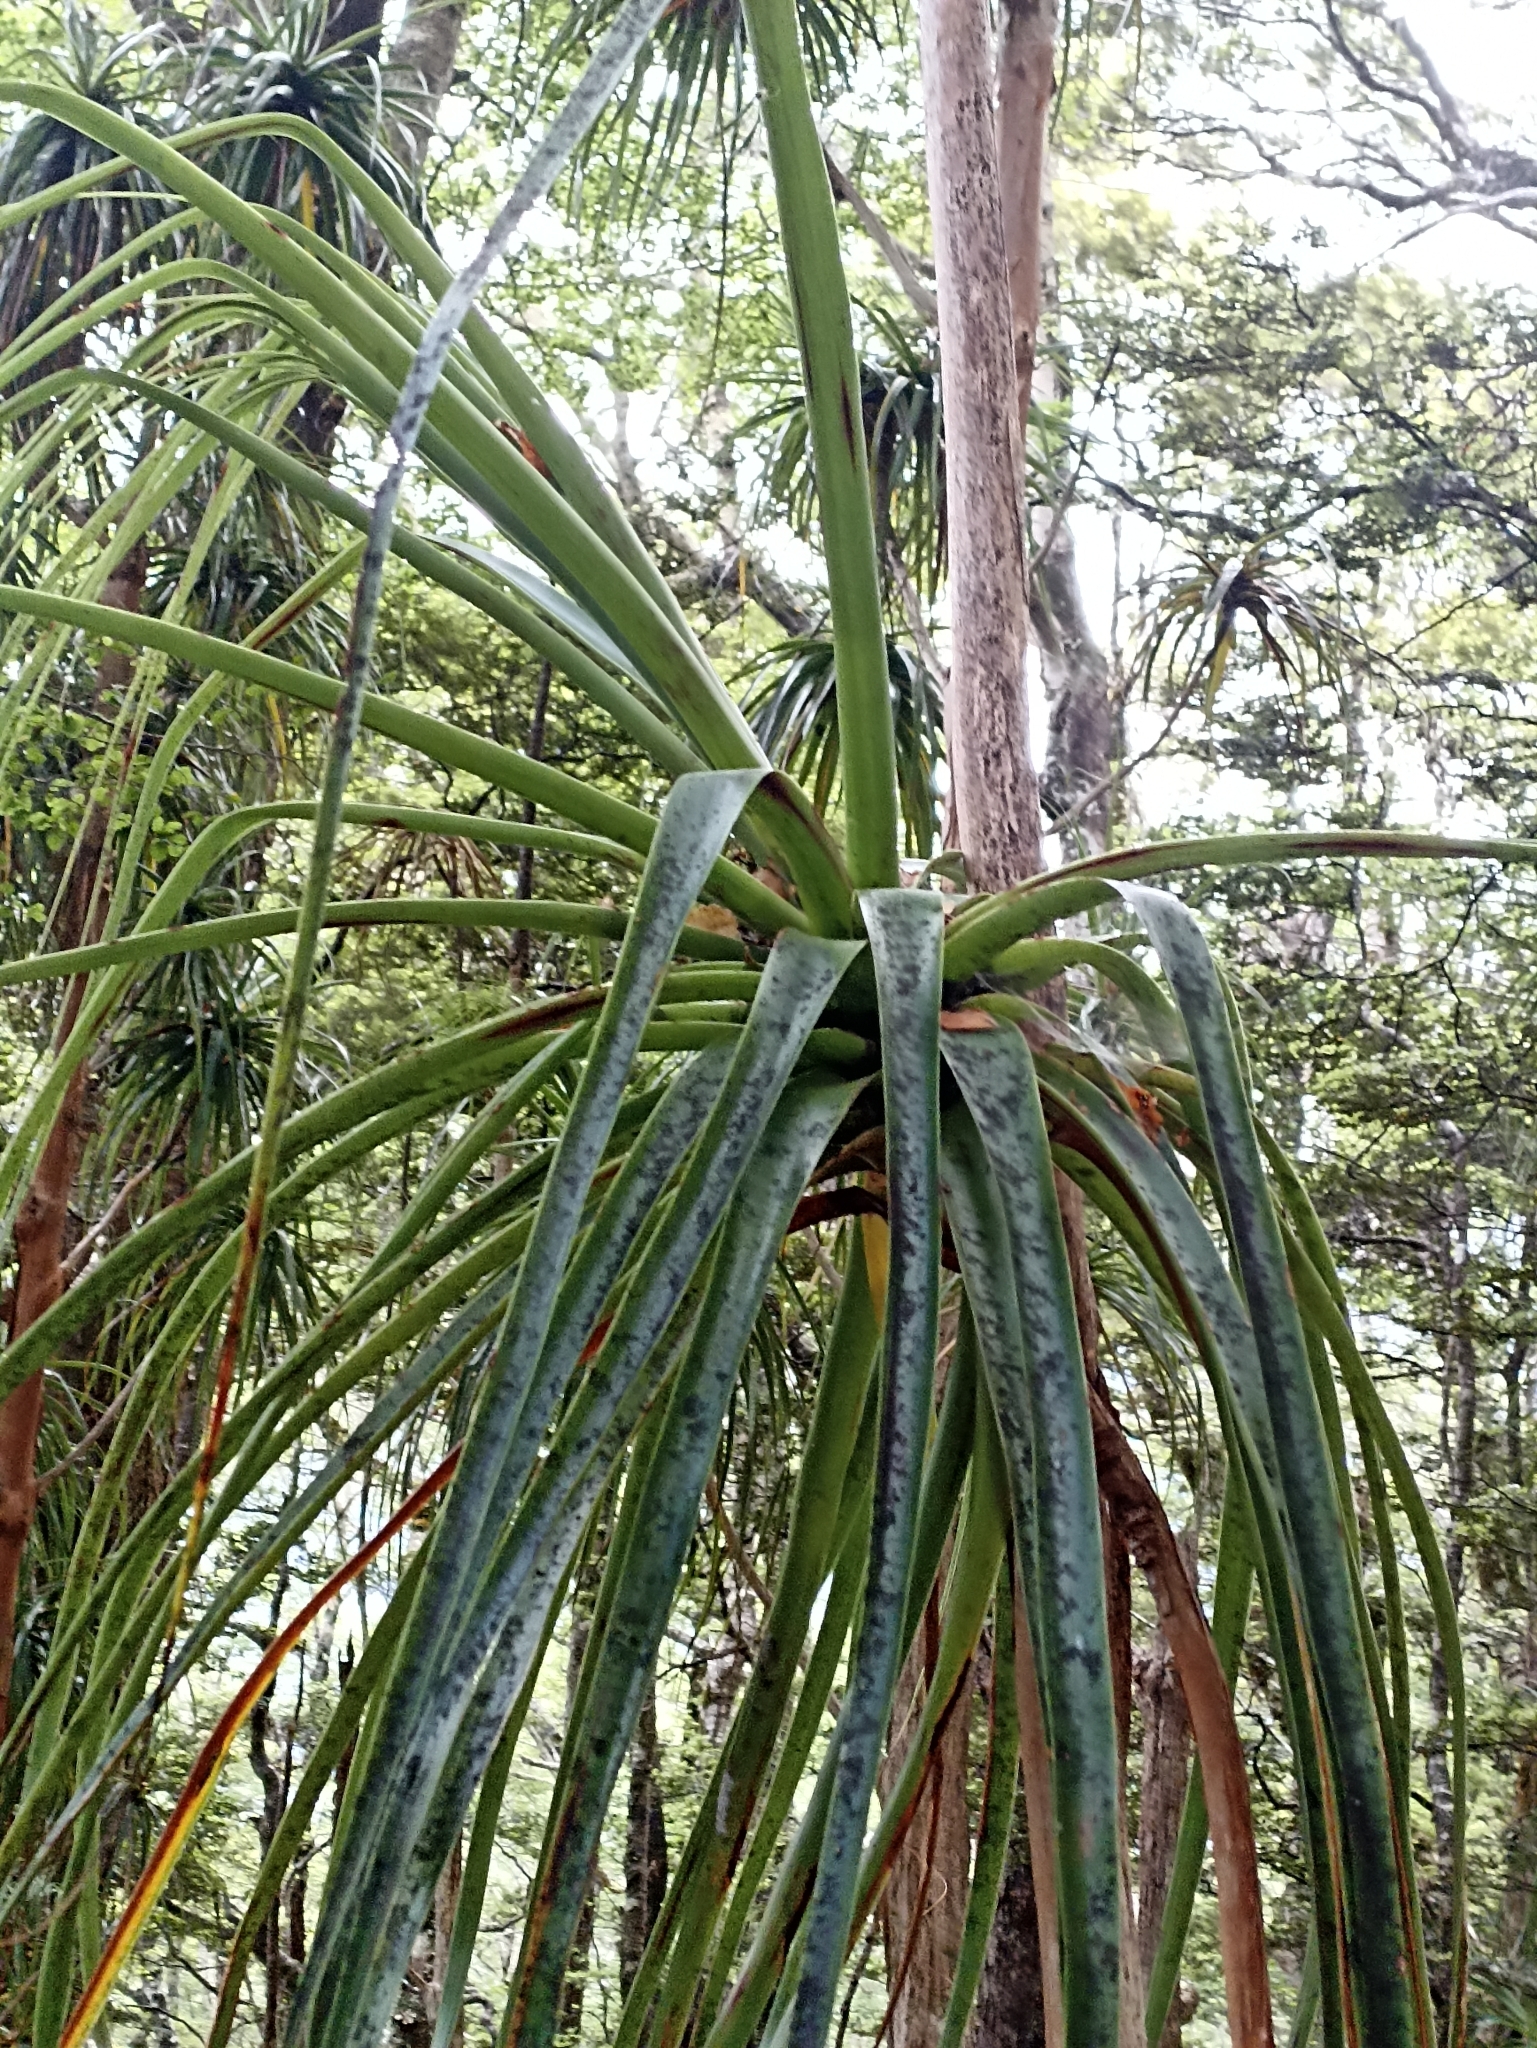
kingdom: Plantae
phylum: Tracheophyta
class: Magnoliopsida
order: Ericales
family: Ericaceae
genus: Dracophyllum
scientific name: Dracophyllum townsonii
